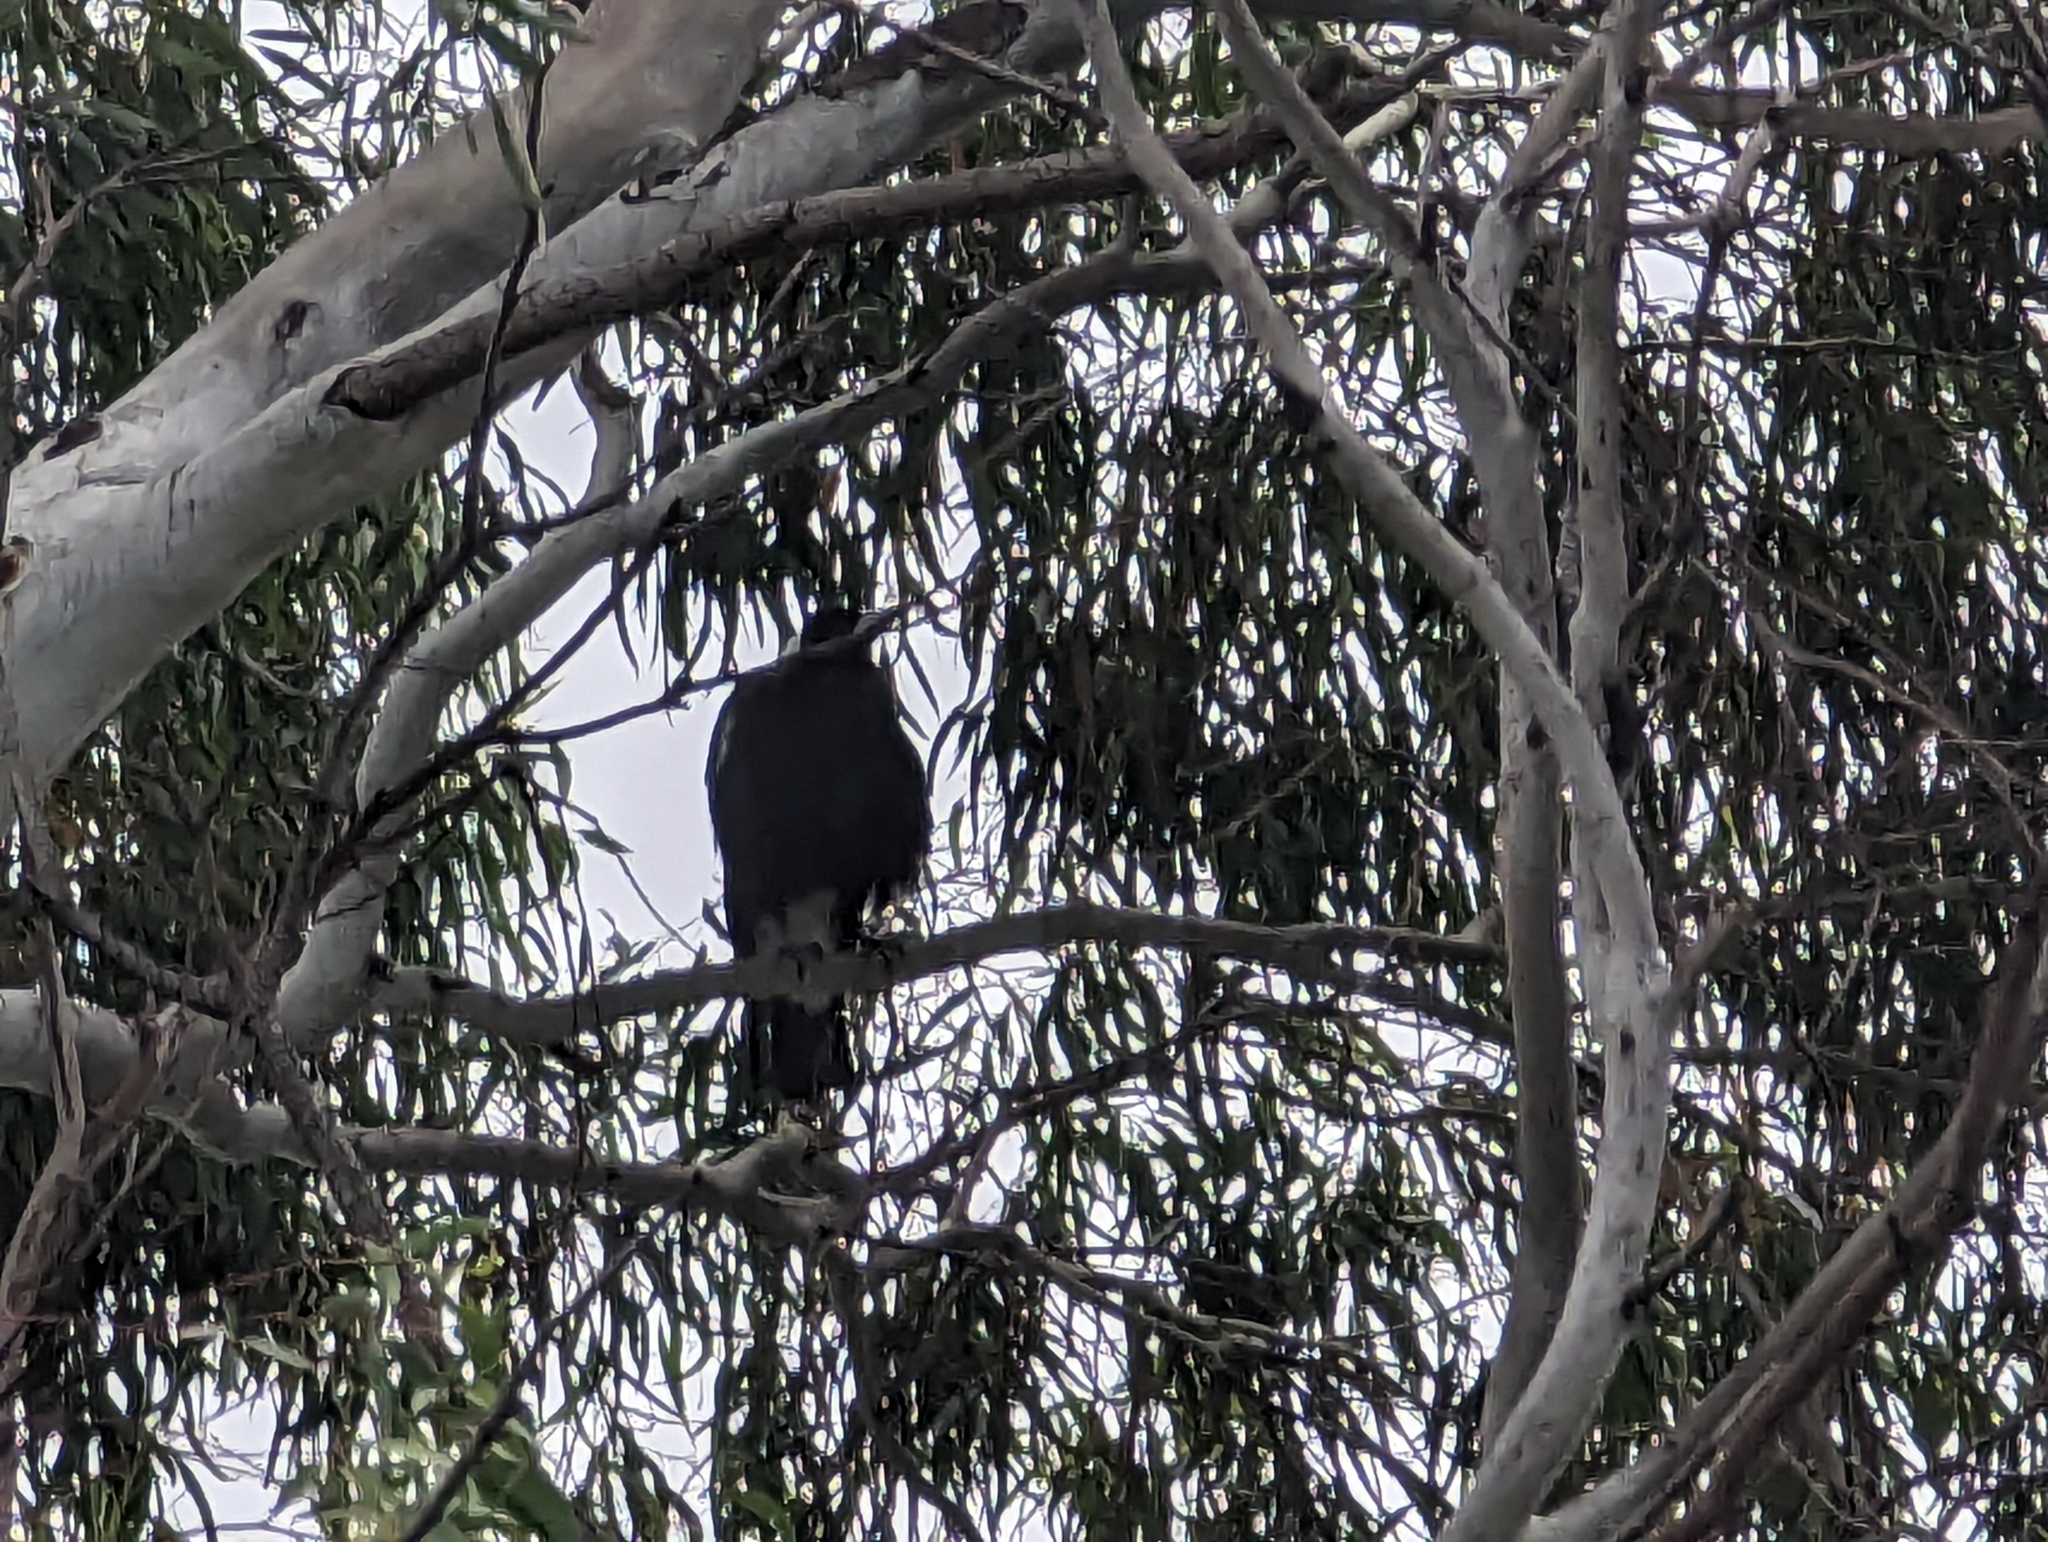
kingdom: Animalia
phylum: Chordata
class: Aves
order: Passeriformes
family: Cracticidae
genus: Gymnorhina
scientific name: Gymnorhina tibicen
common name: Australian magpie
